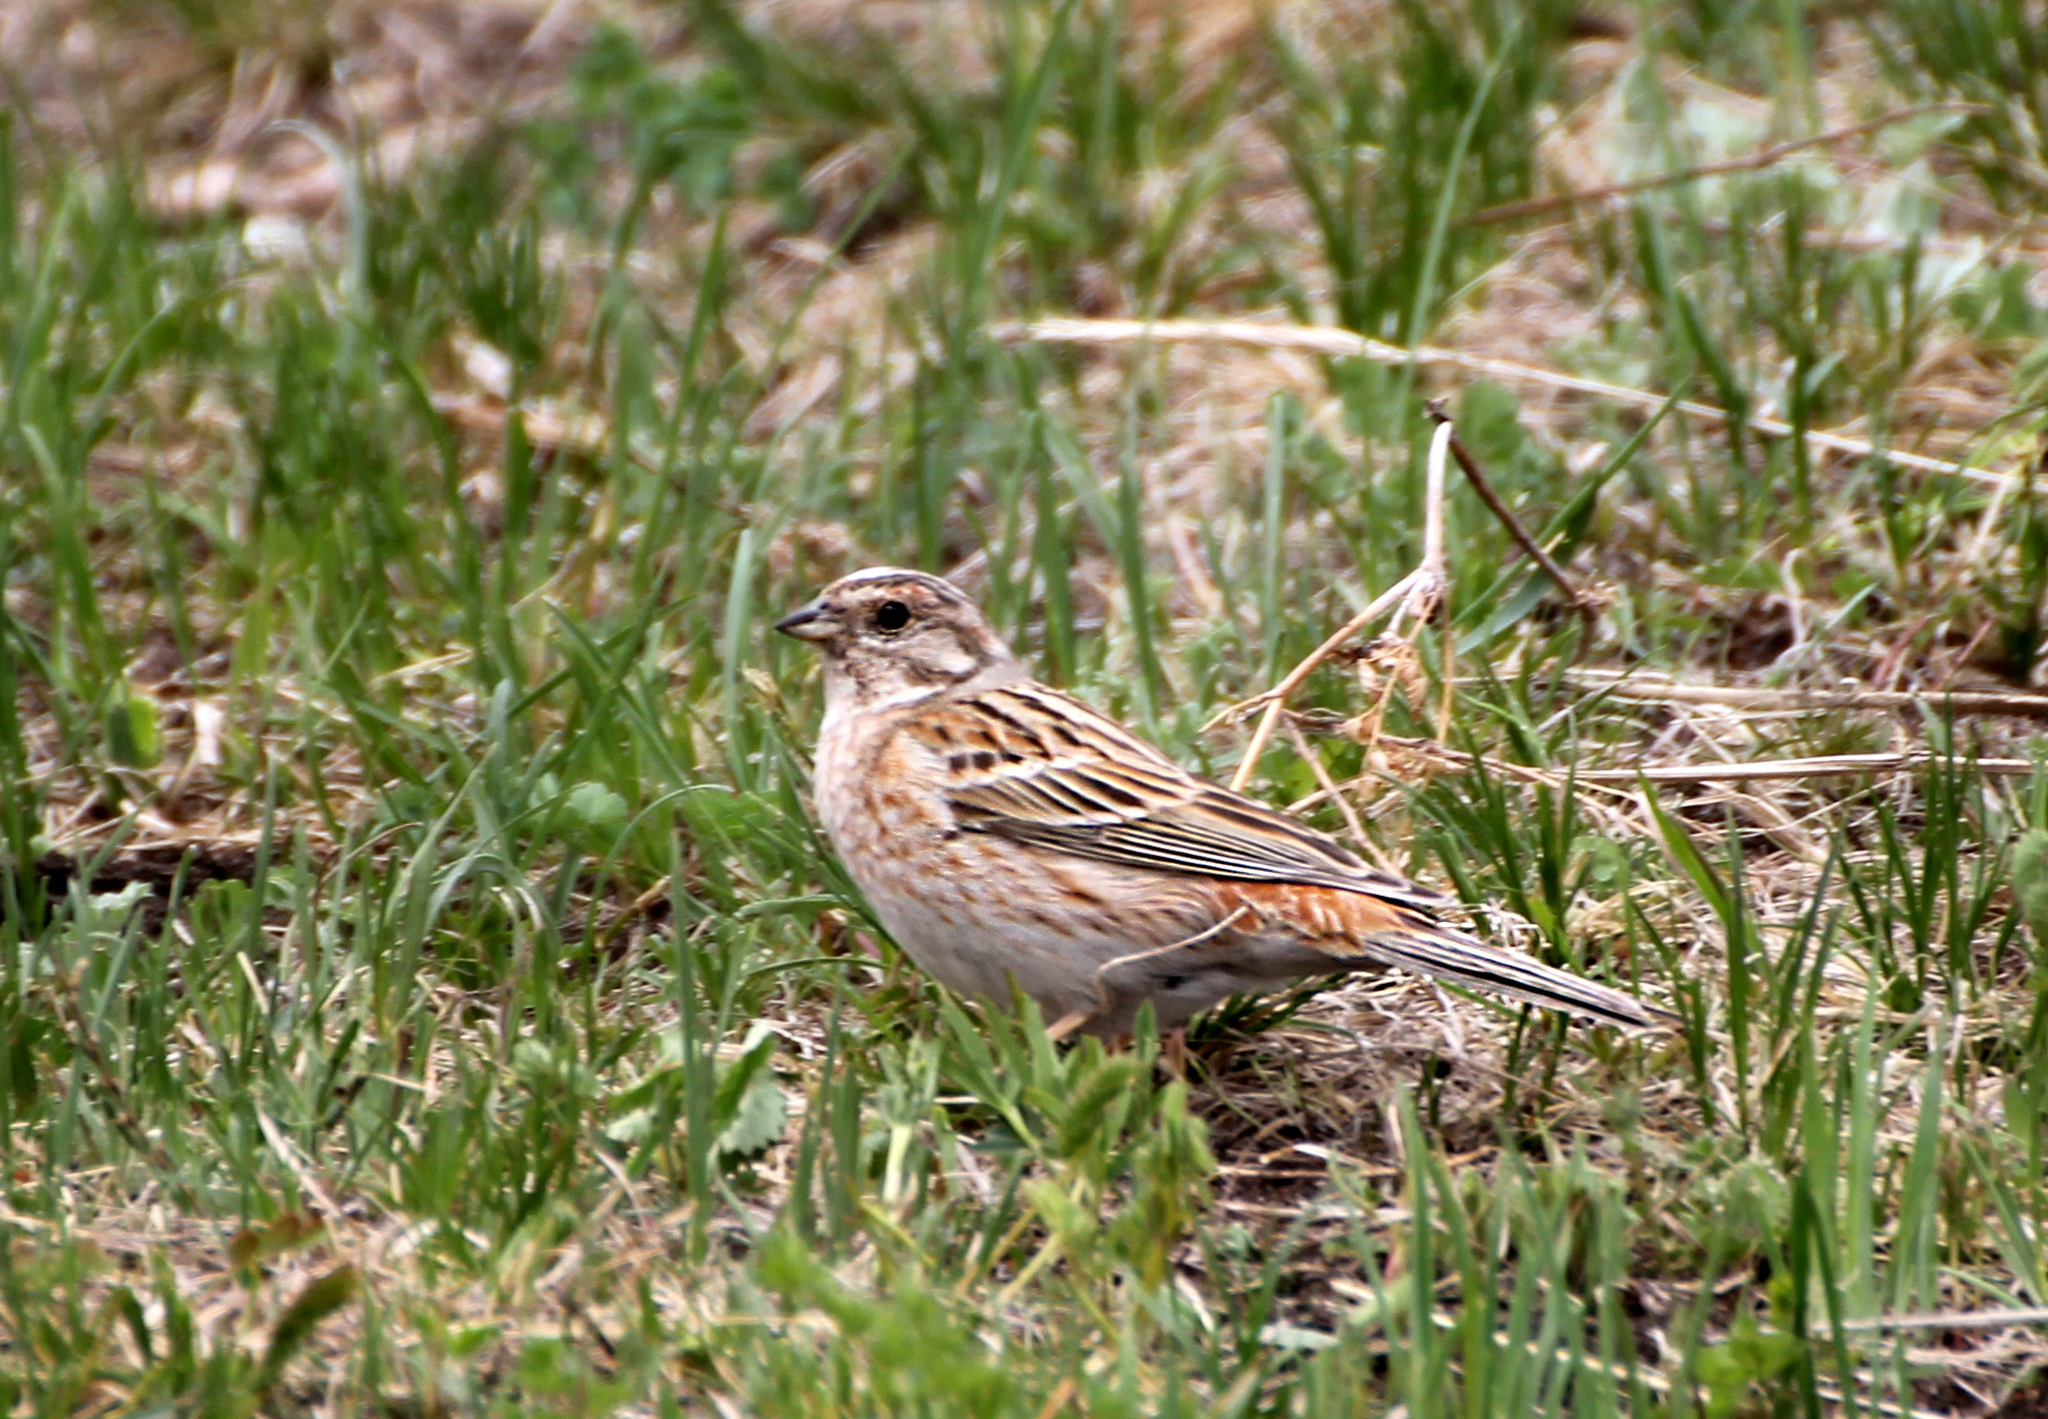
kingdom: Animalia
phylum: Chordata
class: Aves
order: Passeriformes
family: Emberizidae
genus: Emberiza
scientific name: Emberiza leucocephalos
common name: Pine bunting
